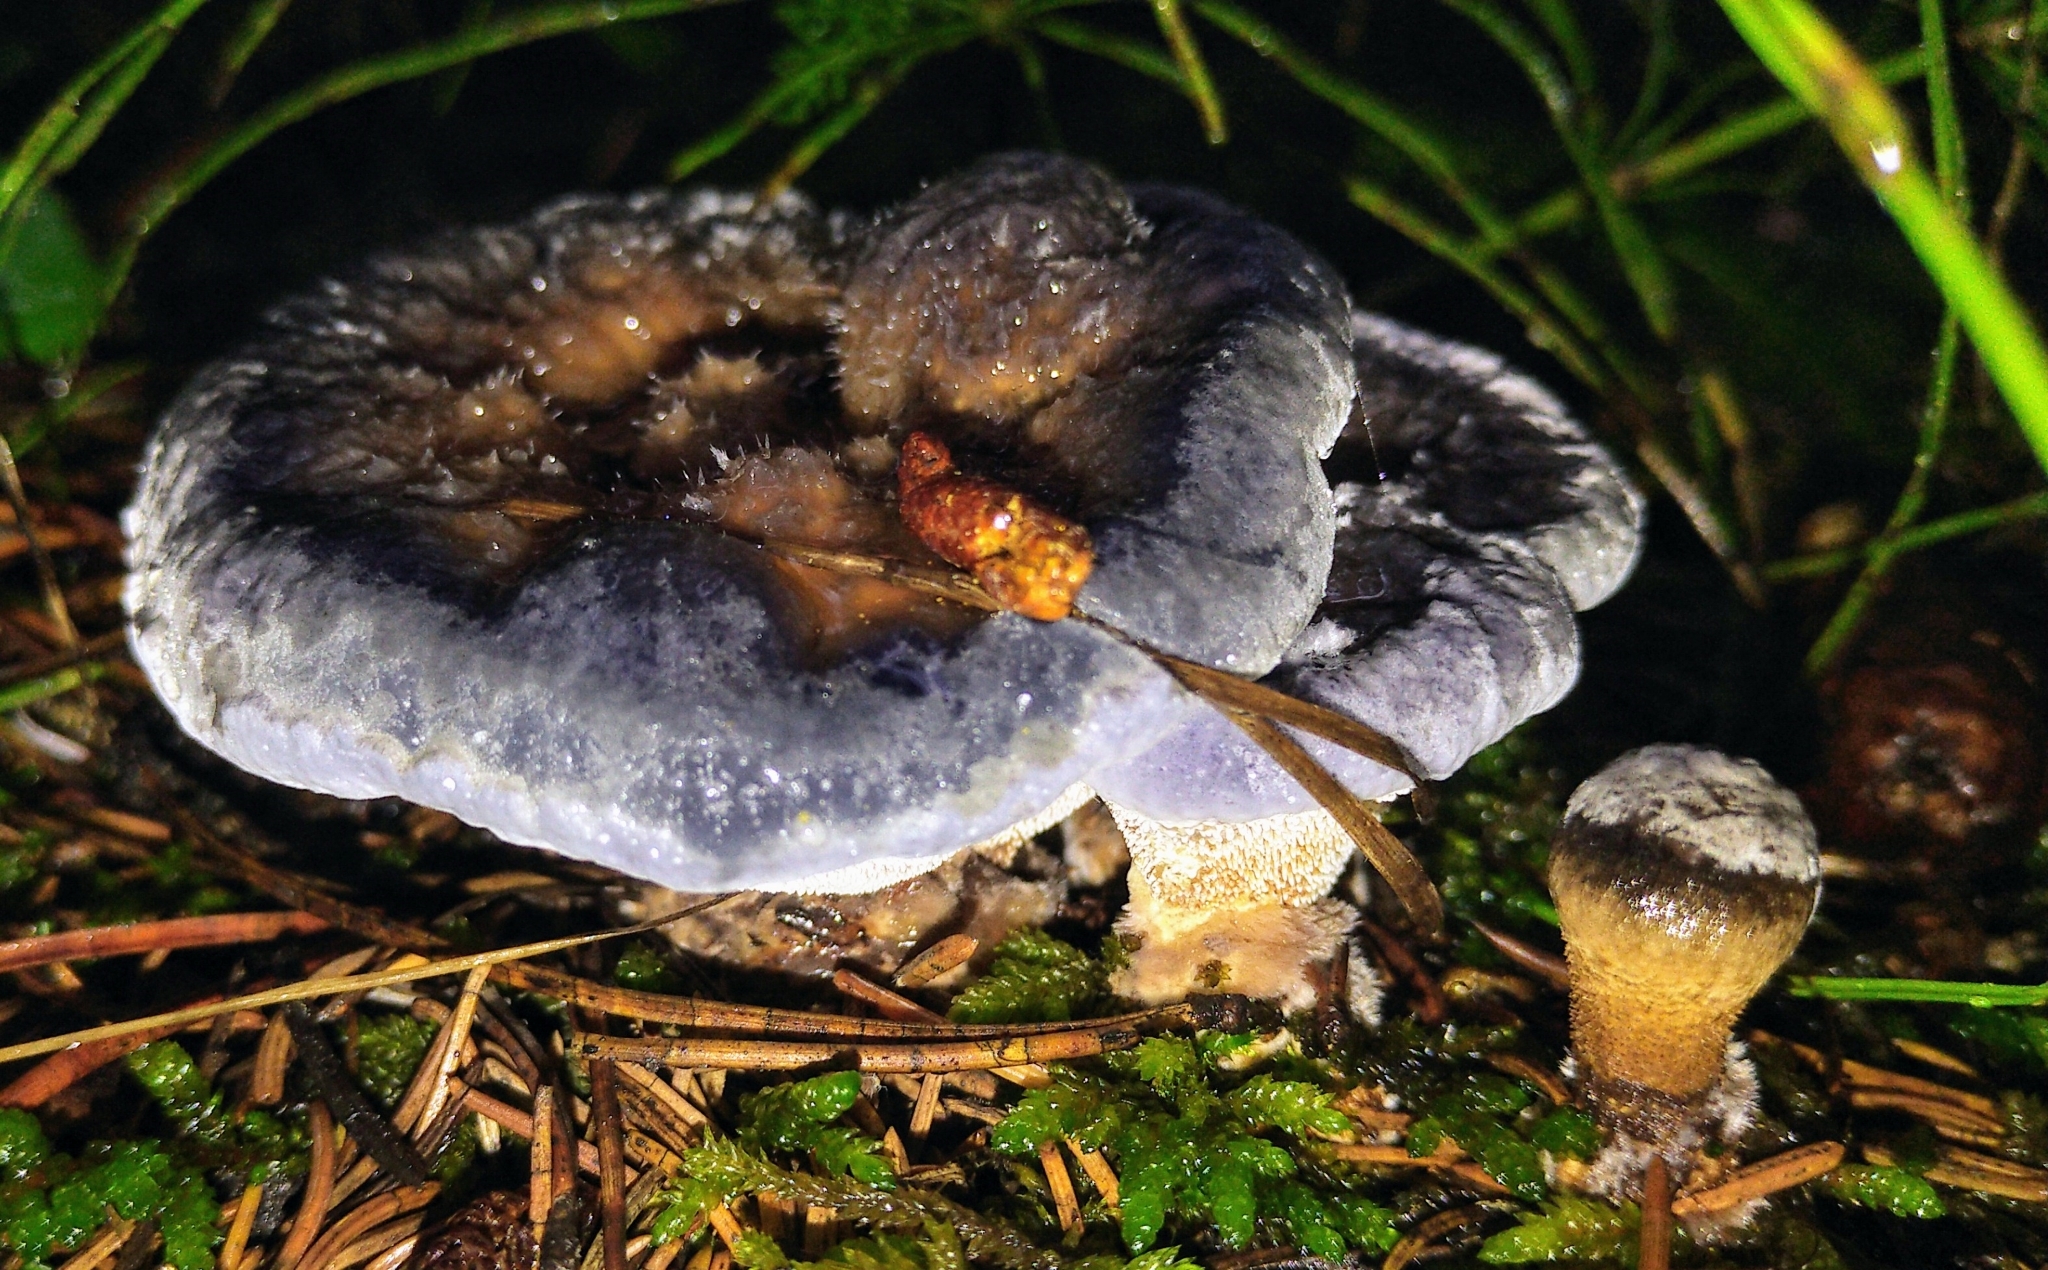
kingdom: Fungi
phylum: Basidiomycota
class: Agaricomycetes
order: Thelephorales
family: Bankeraceae
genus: Hydnellum
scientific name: Hydnellum caeruleum
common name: Blue corky spine fungus
